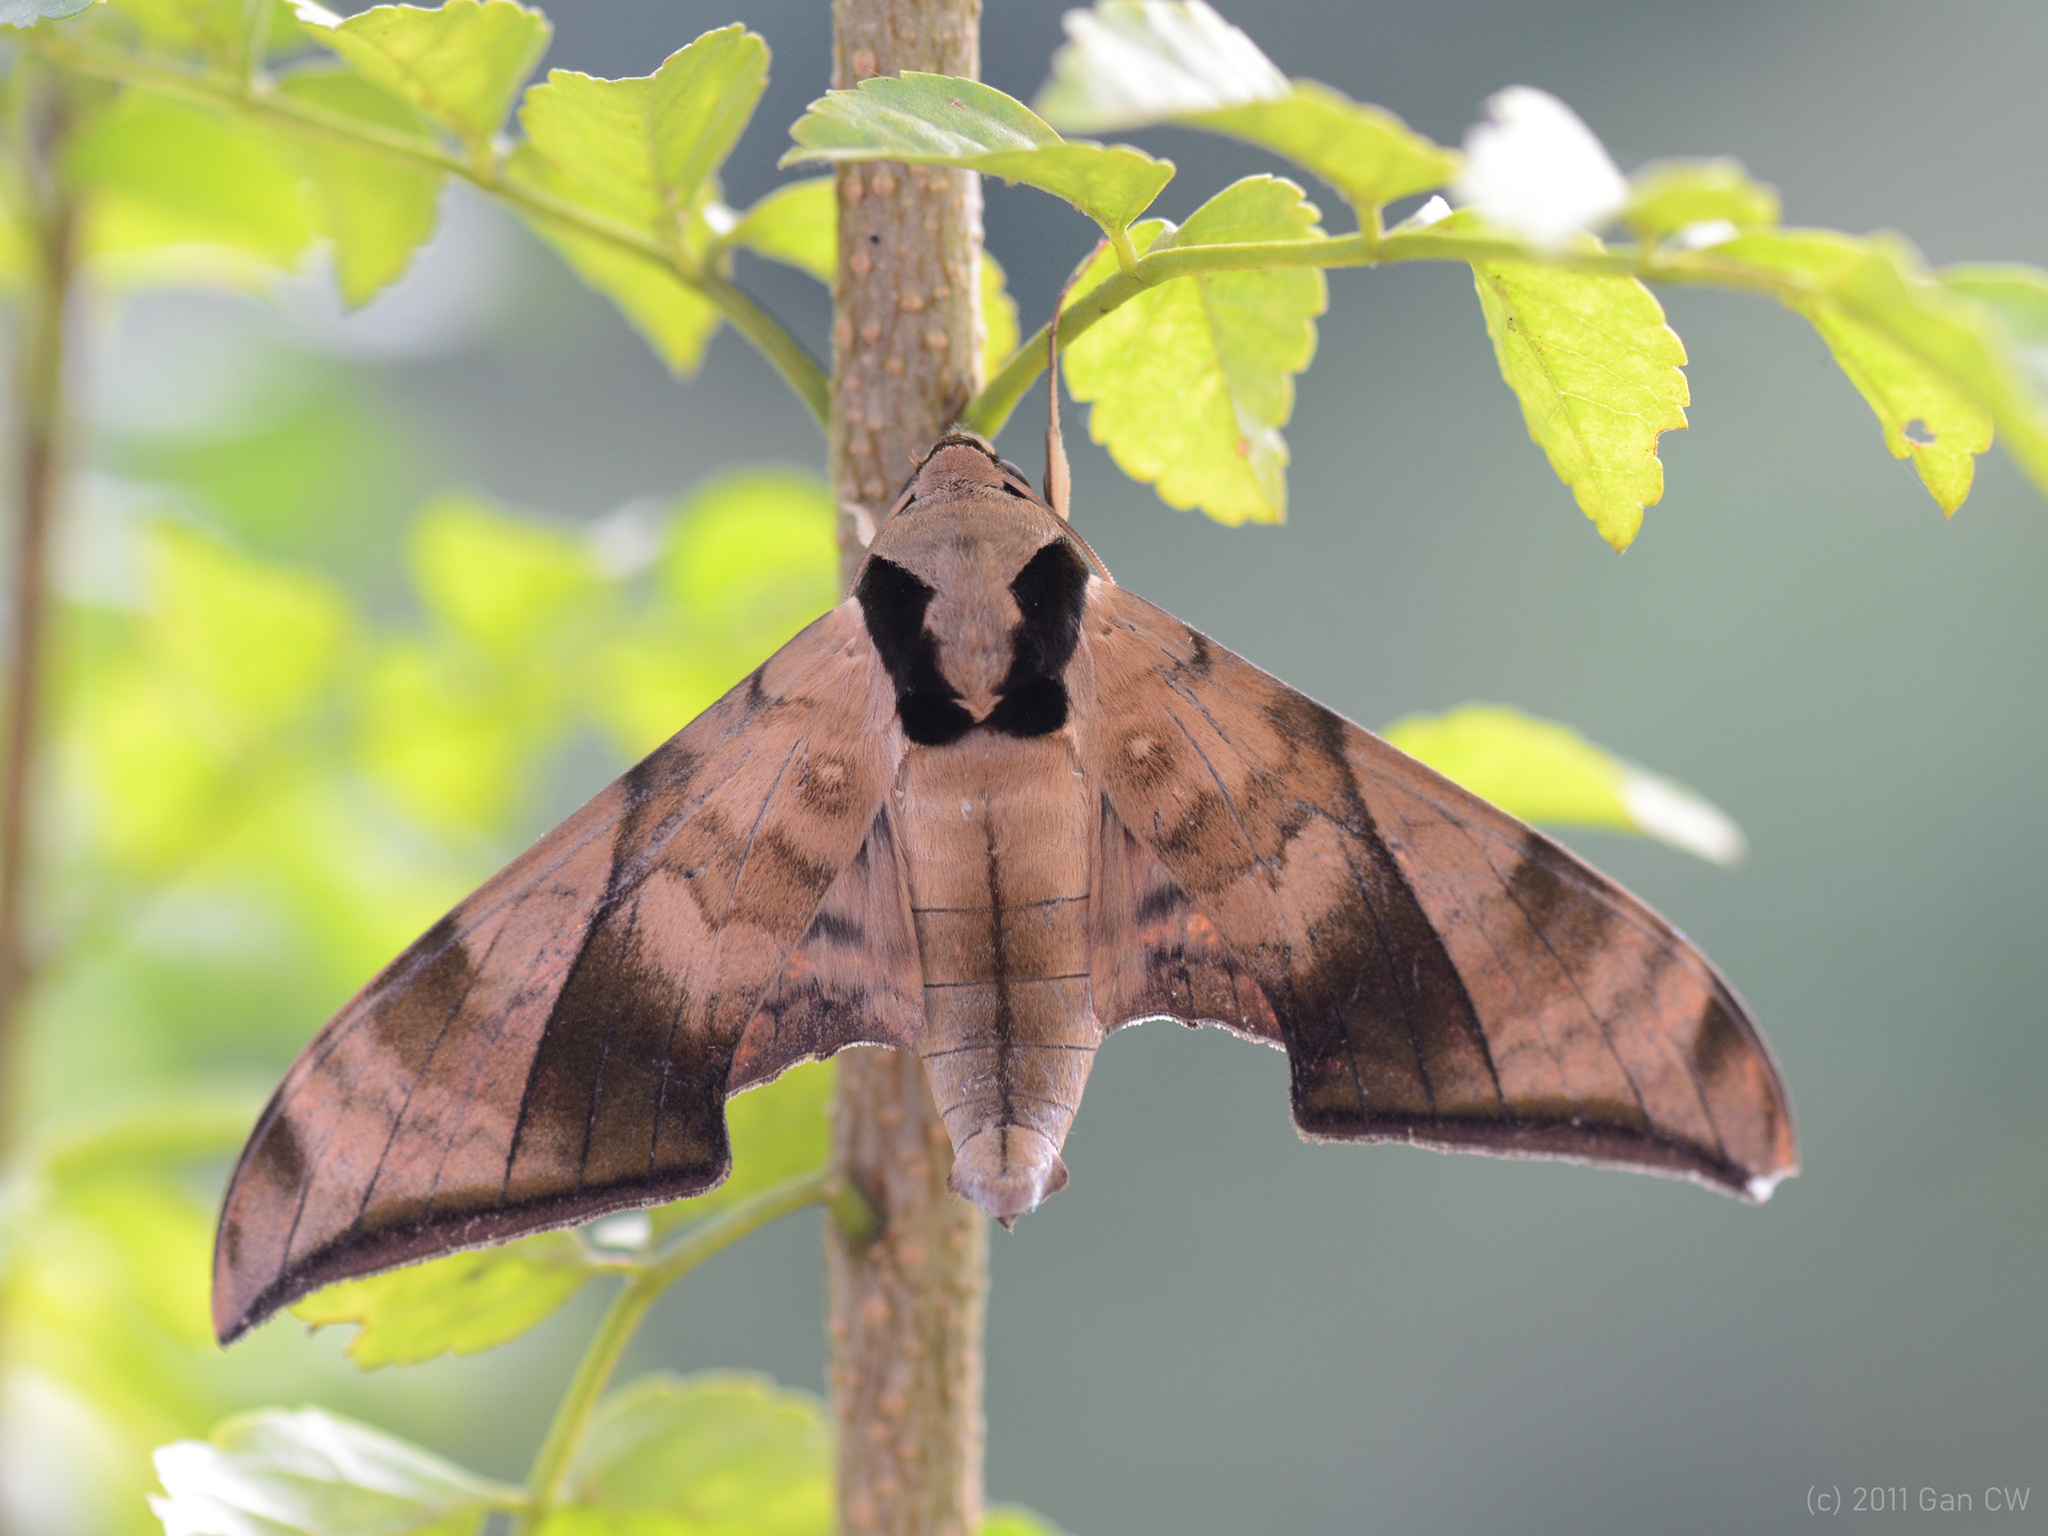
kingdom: Animalia
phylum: Arthropoda
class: Insecta
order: Lepidoptera
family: Sphingidae
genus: Ambulyx
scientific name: Ambulyx tattina
